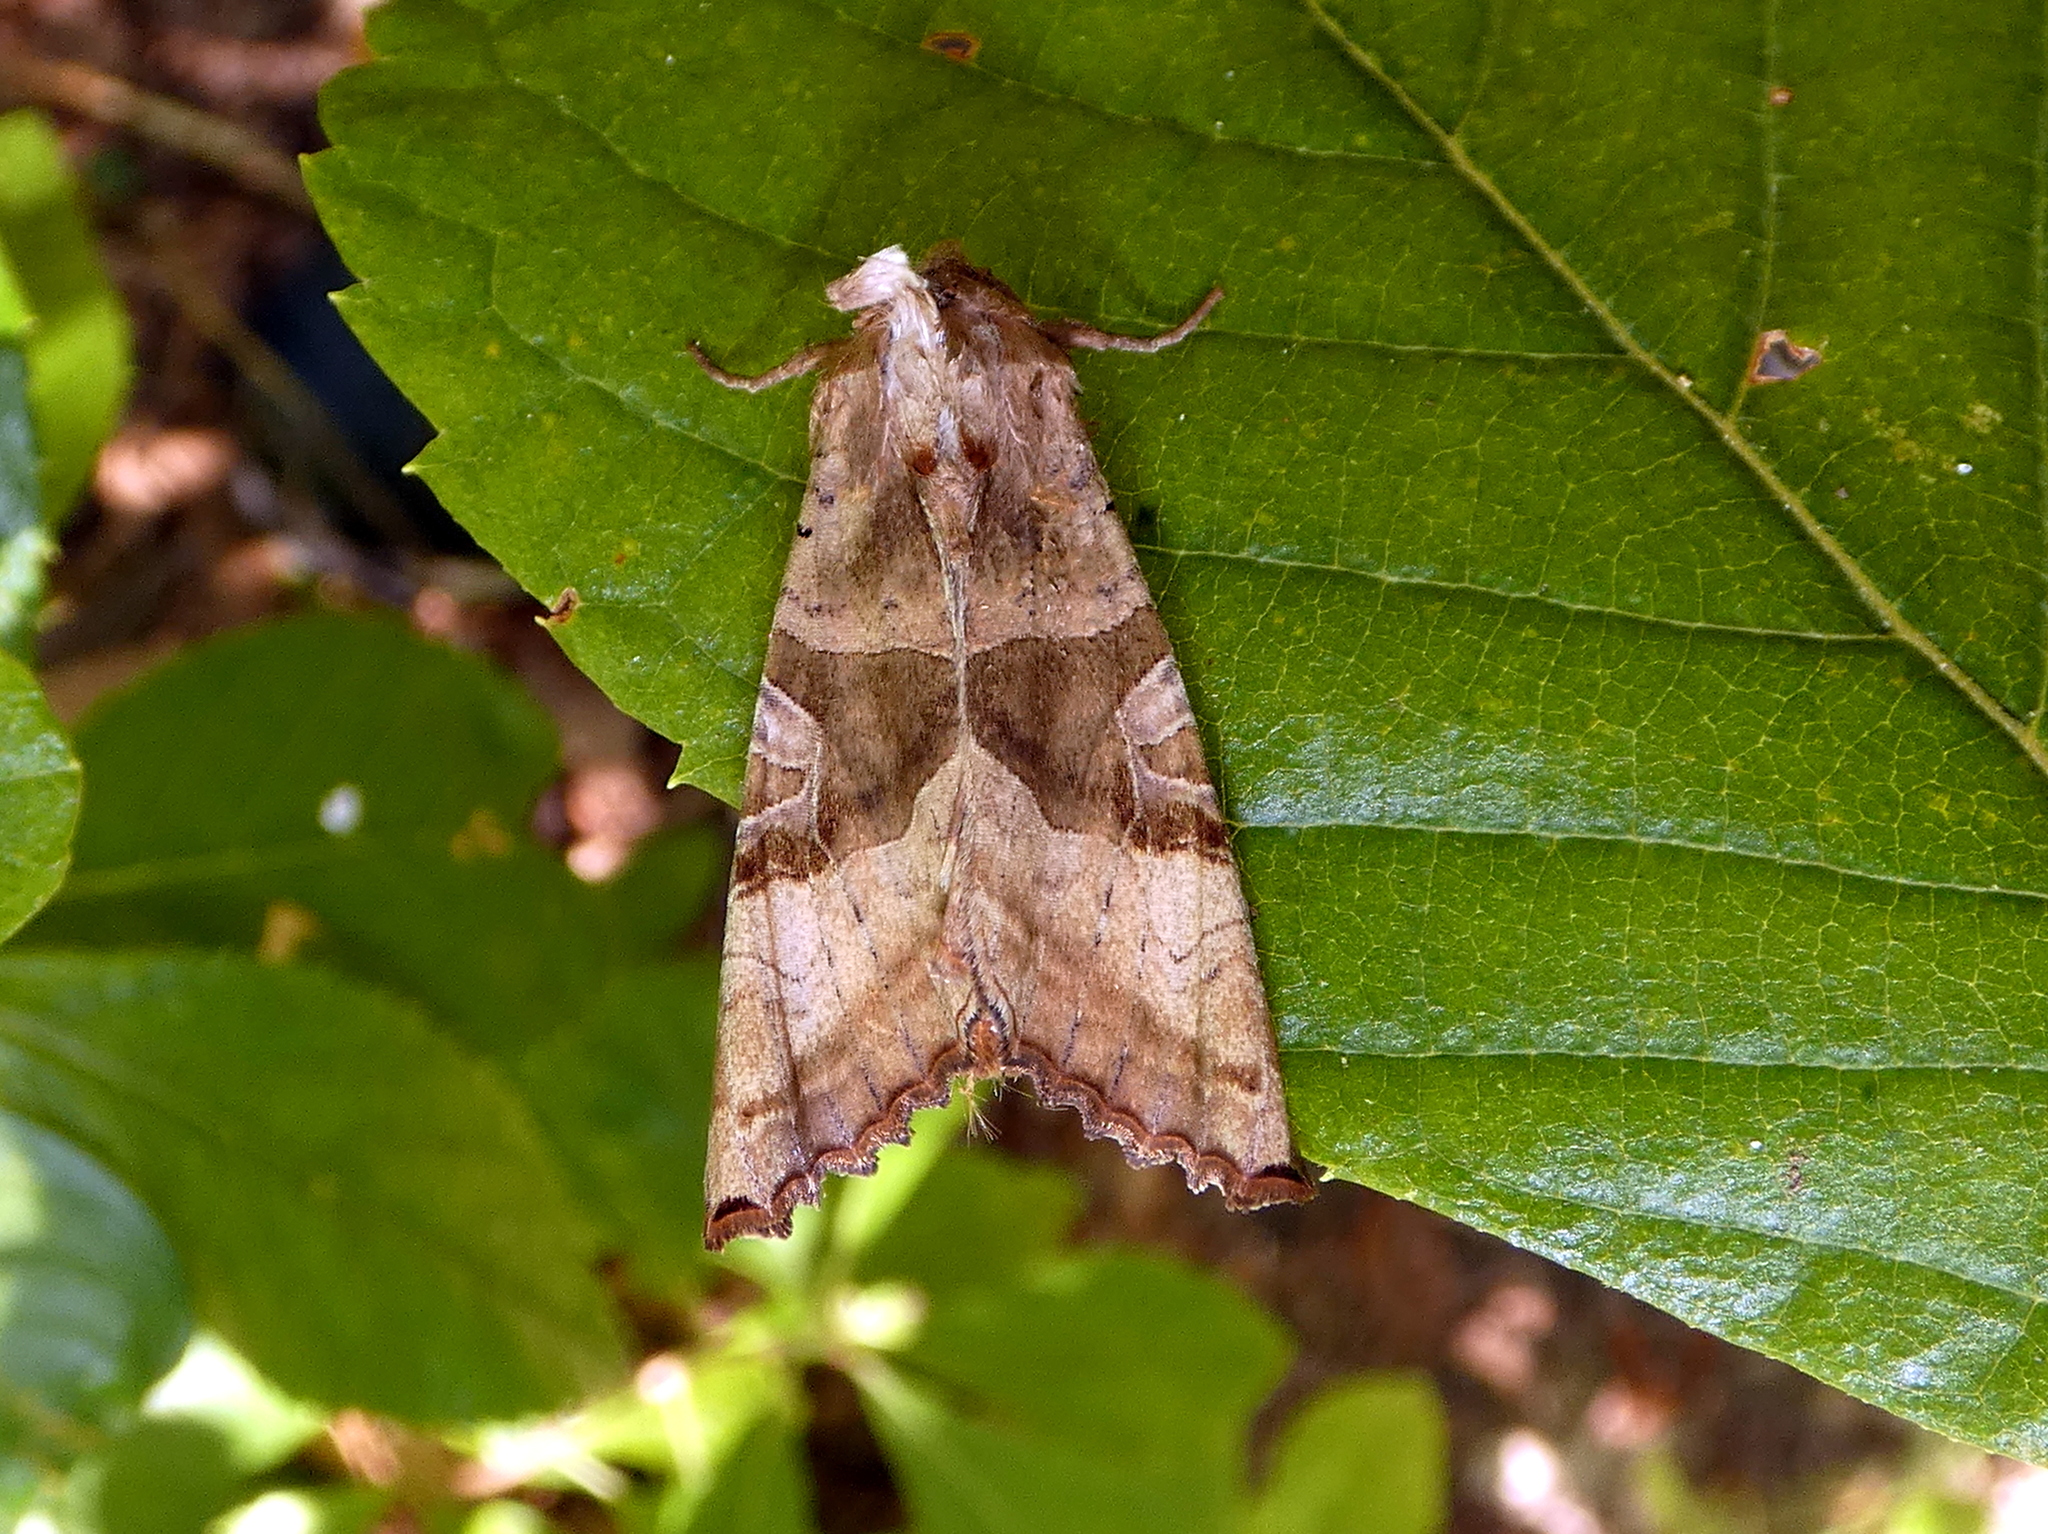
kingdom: Animalia
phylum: Arthropoda
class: Insecta
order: Lepidoptera
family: Noctuidae
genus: Phlogophora
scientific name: Phlogophora periculosa
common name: Brown angle shades
